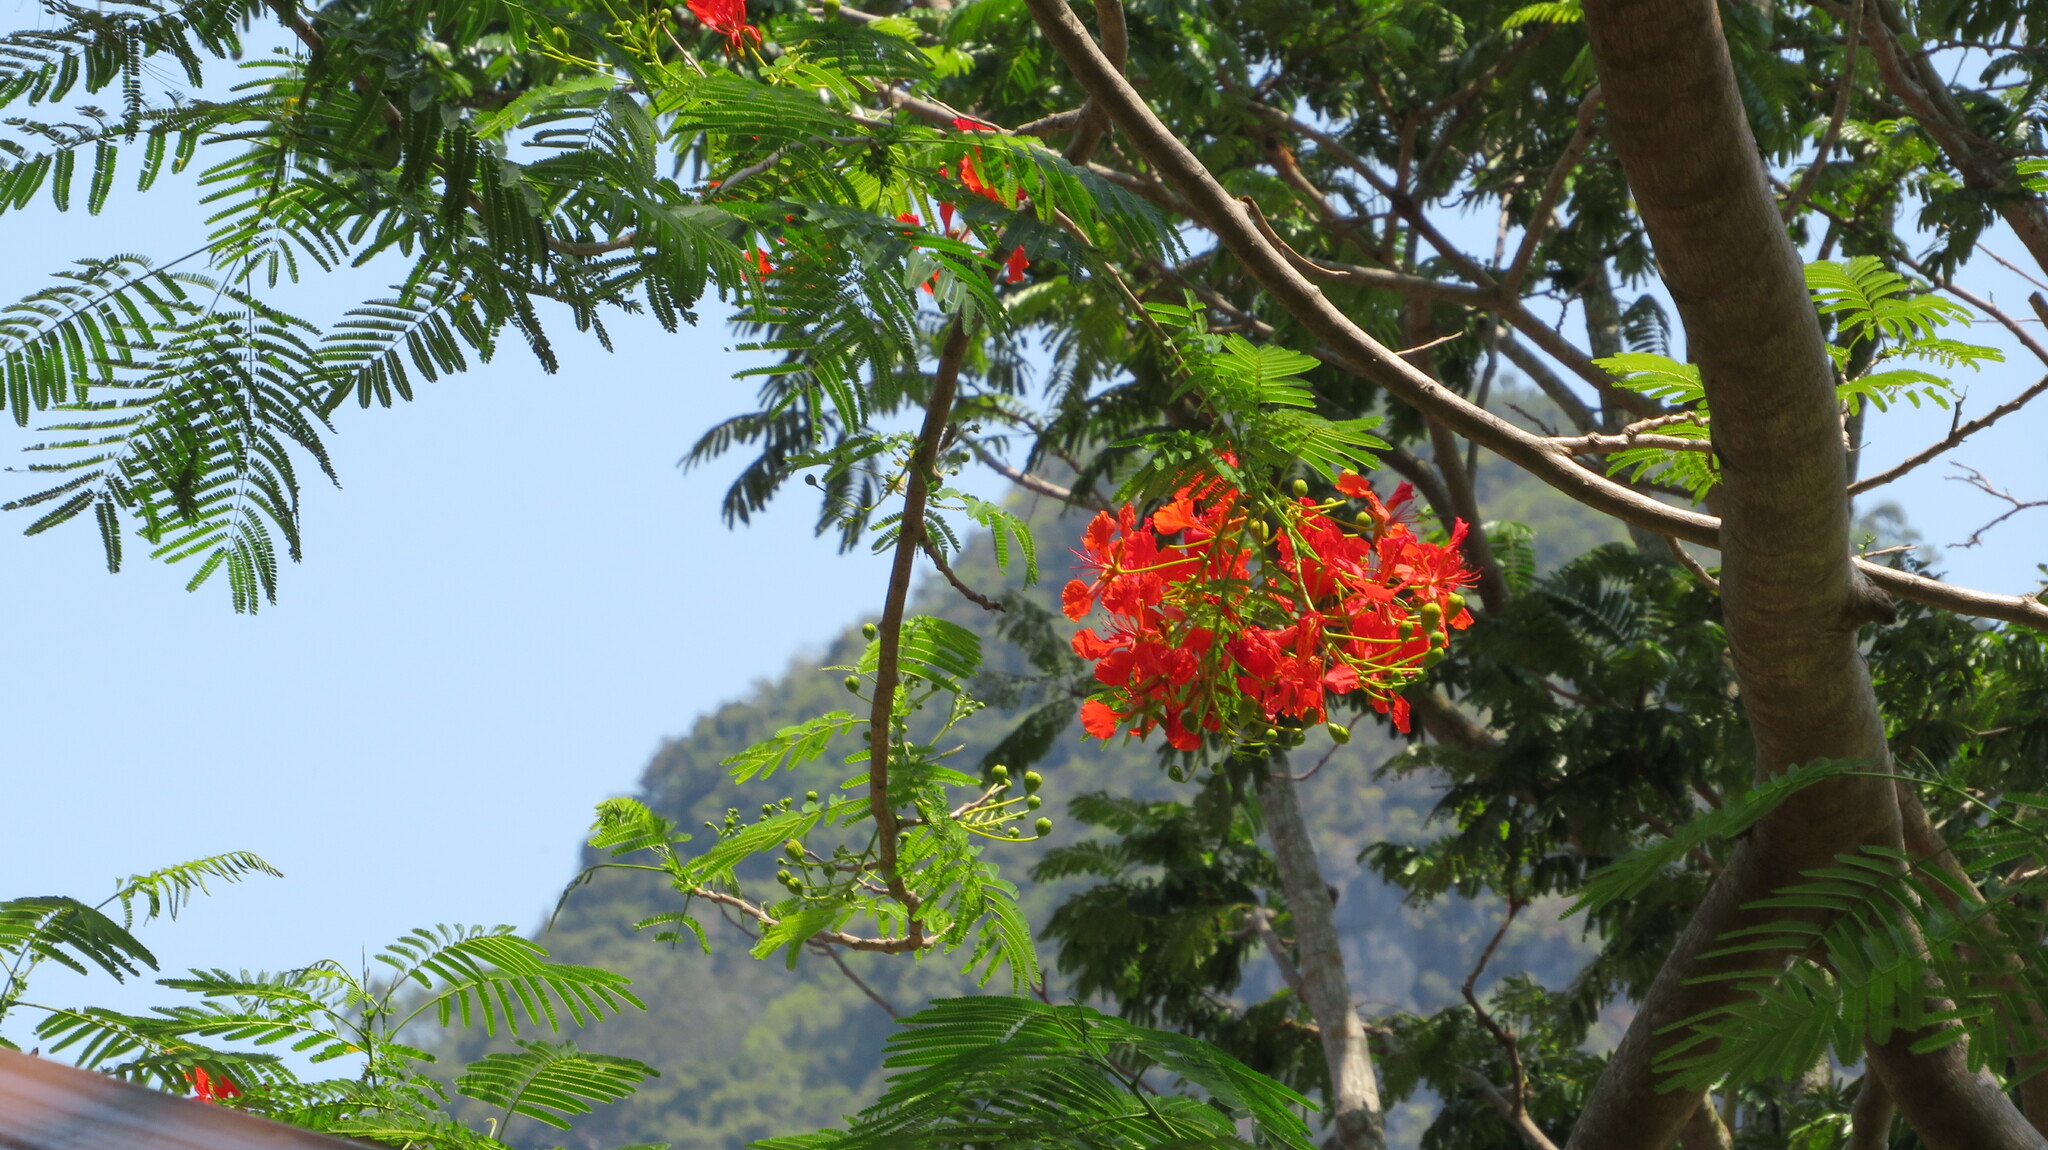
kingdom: Plantae
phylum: Tracheophyta
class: Magnoliopsida
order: Fabales
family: Fabaceae
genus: Delonix
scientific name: Delonix regia
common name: Royal poinciana
